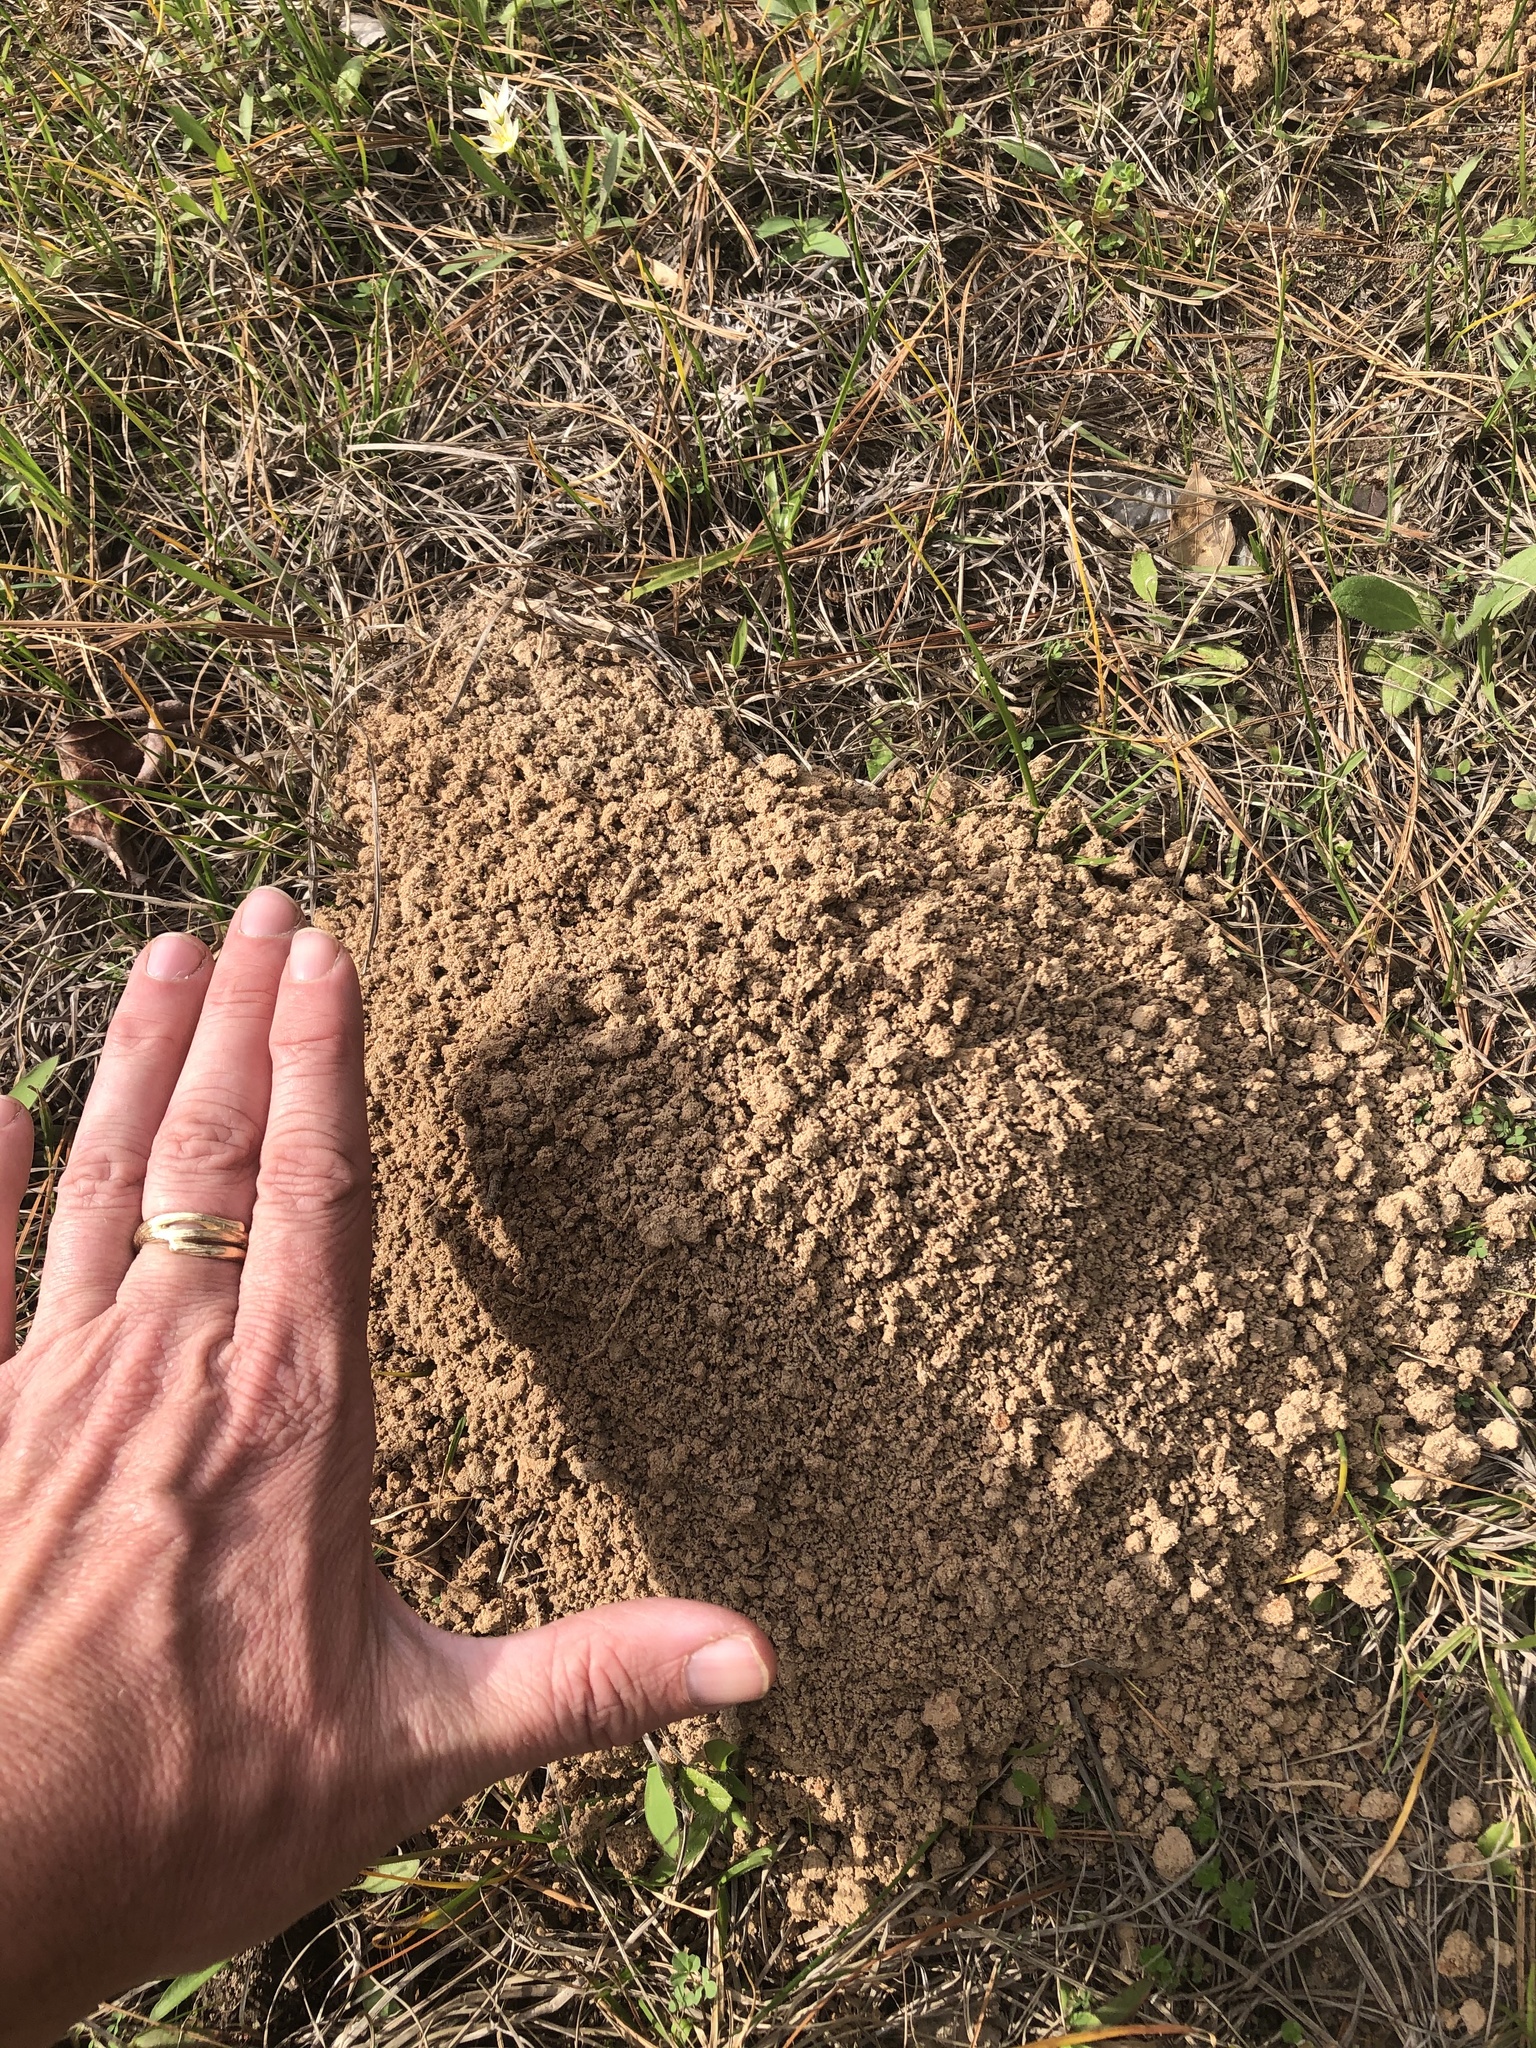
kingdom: Animalia
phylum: Chordata
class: Mammalia
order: Rodentia
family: Geomyidae
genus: Geomys
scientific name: Geomys breviceps
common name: Baird's pocket gopher
